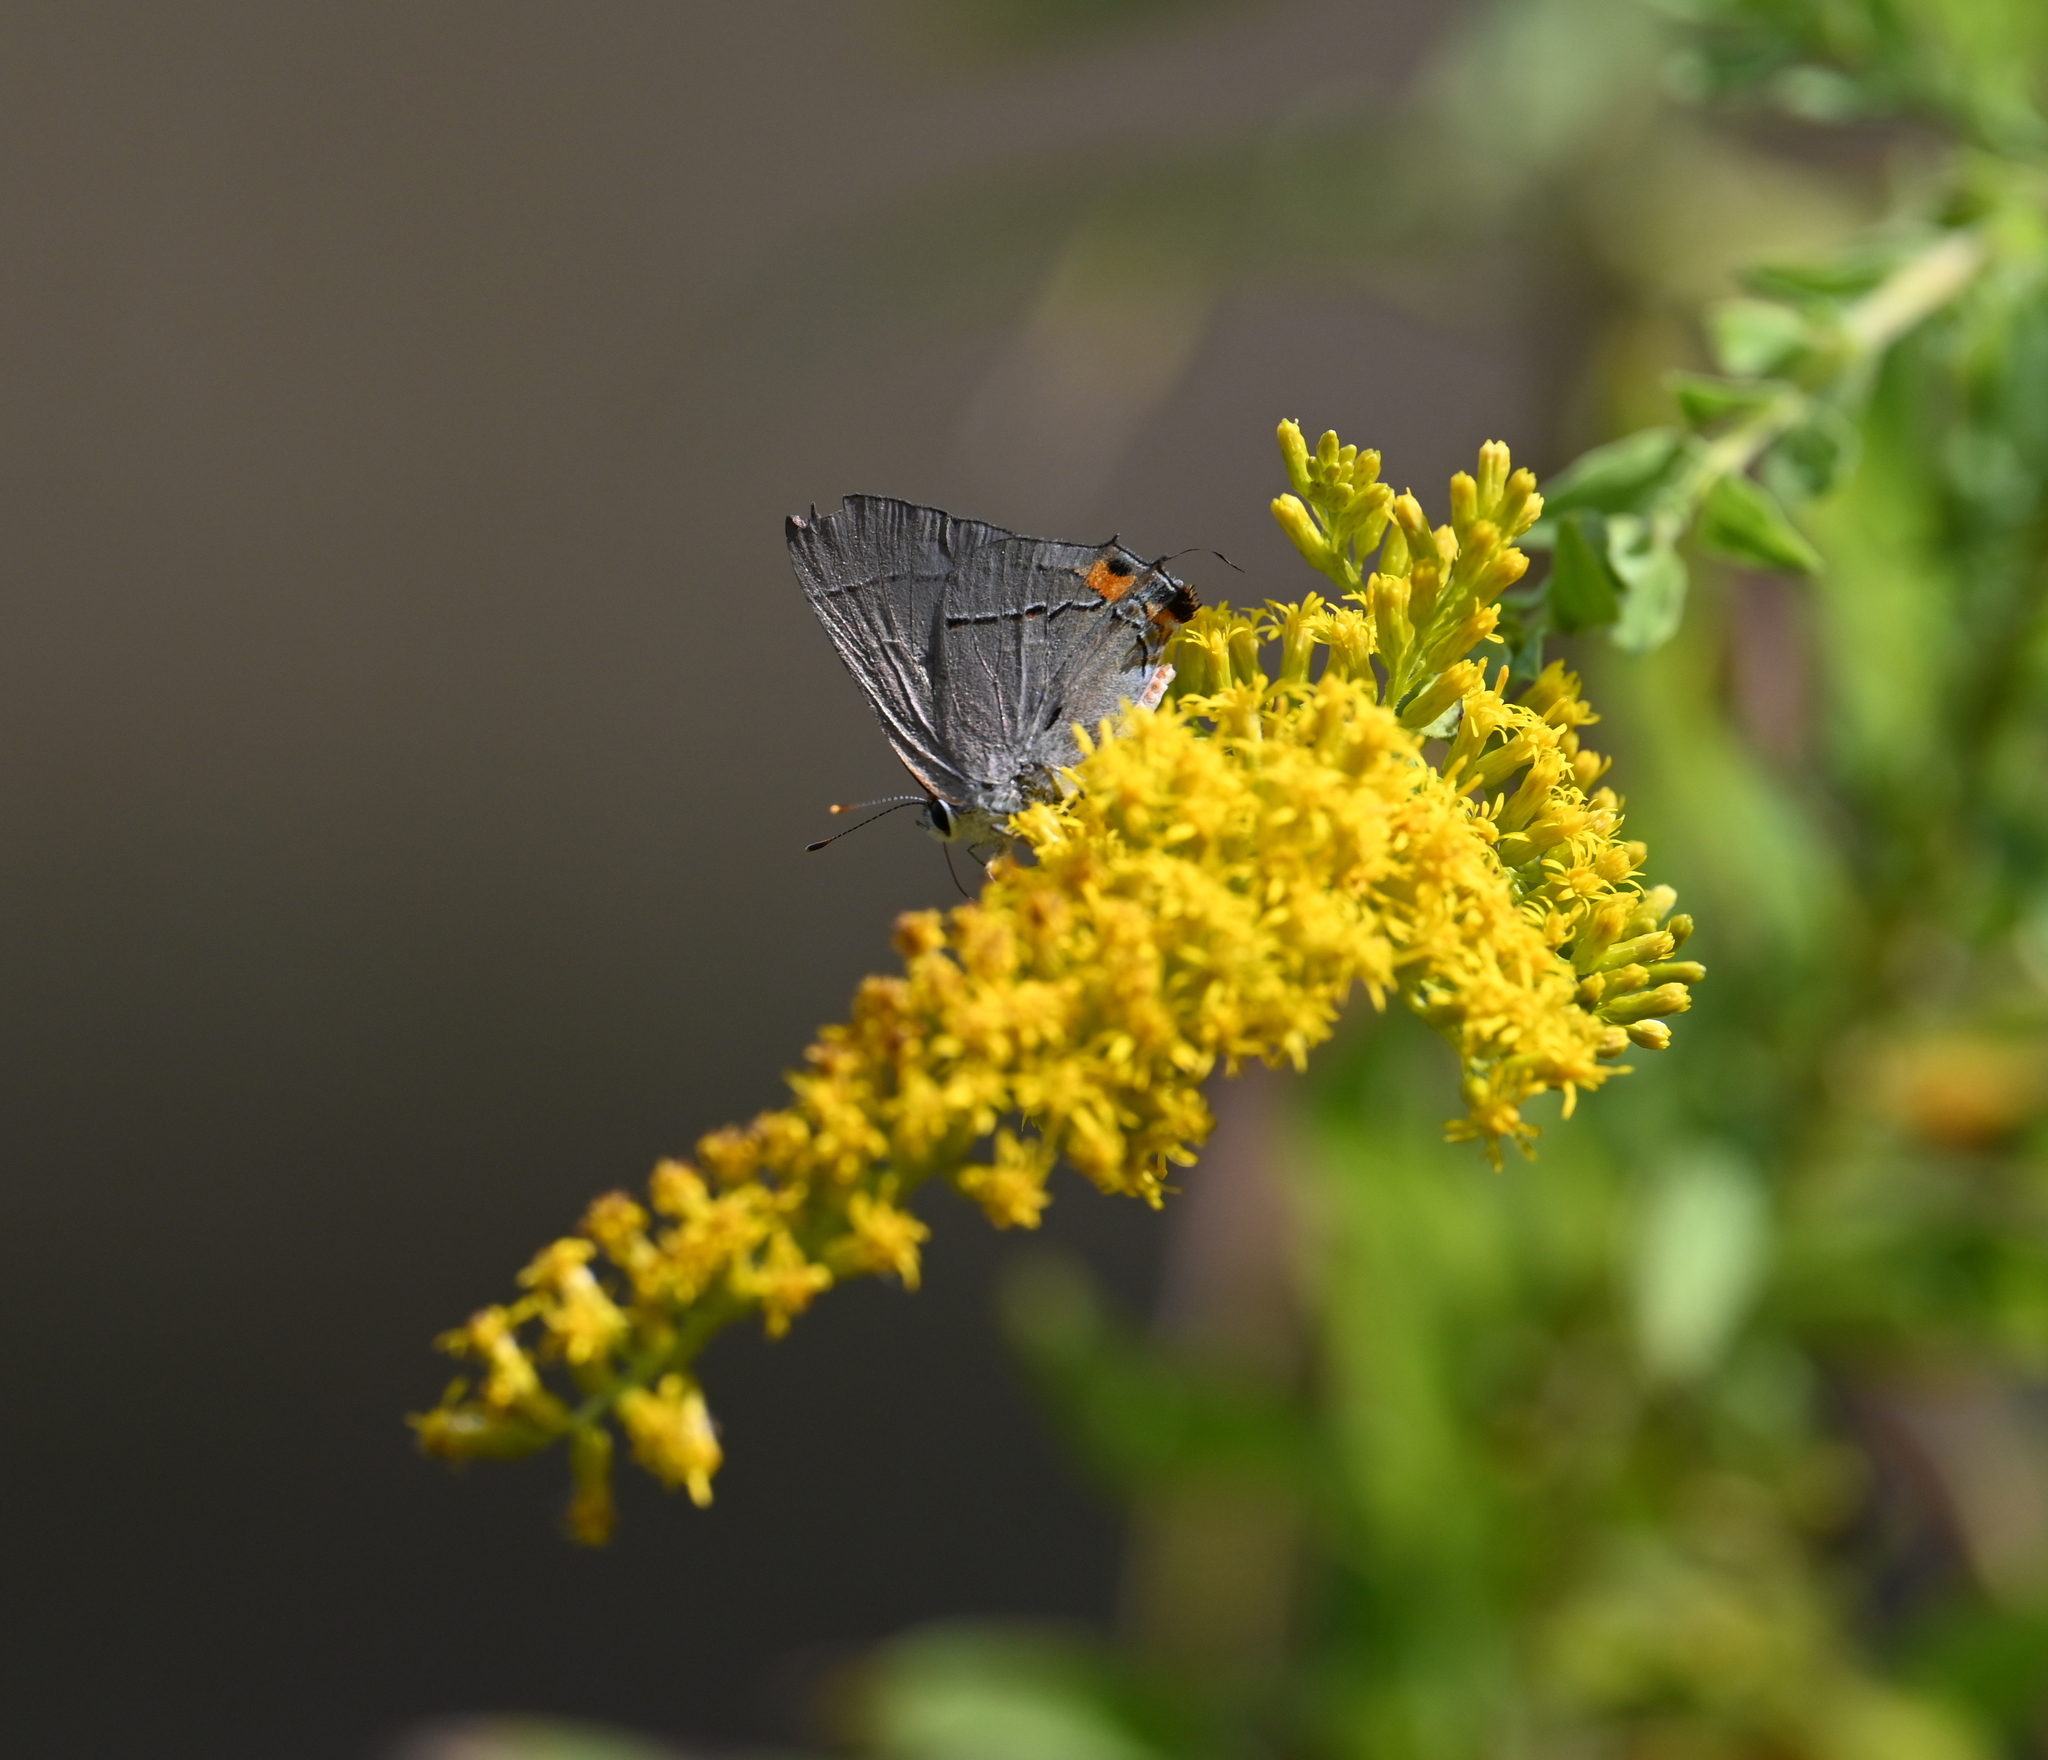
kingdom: Animalia
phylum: Arthropoda
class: Insecta
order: Lepidoptera
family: Lycaenidae
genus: Strymon
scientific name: Strymon melinus
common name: Gray hairstreak
